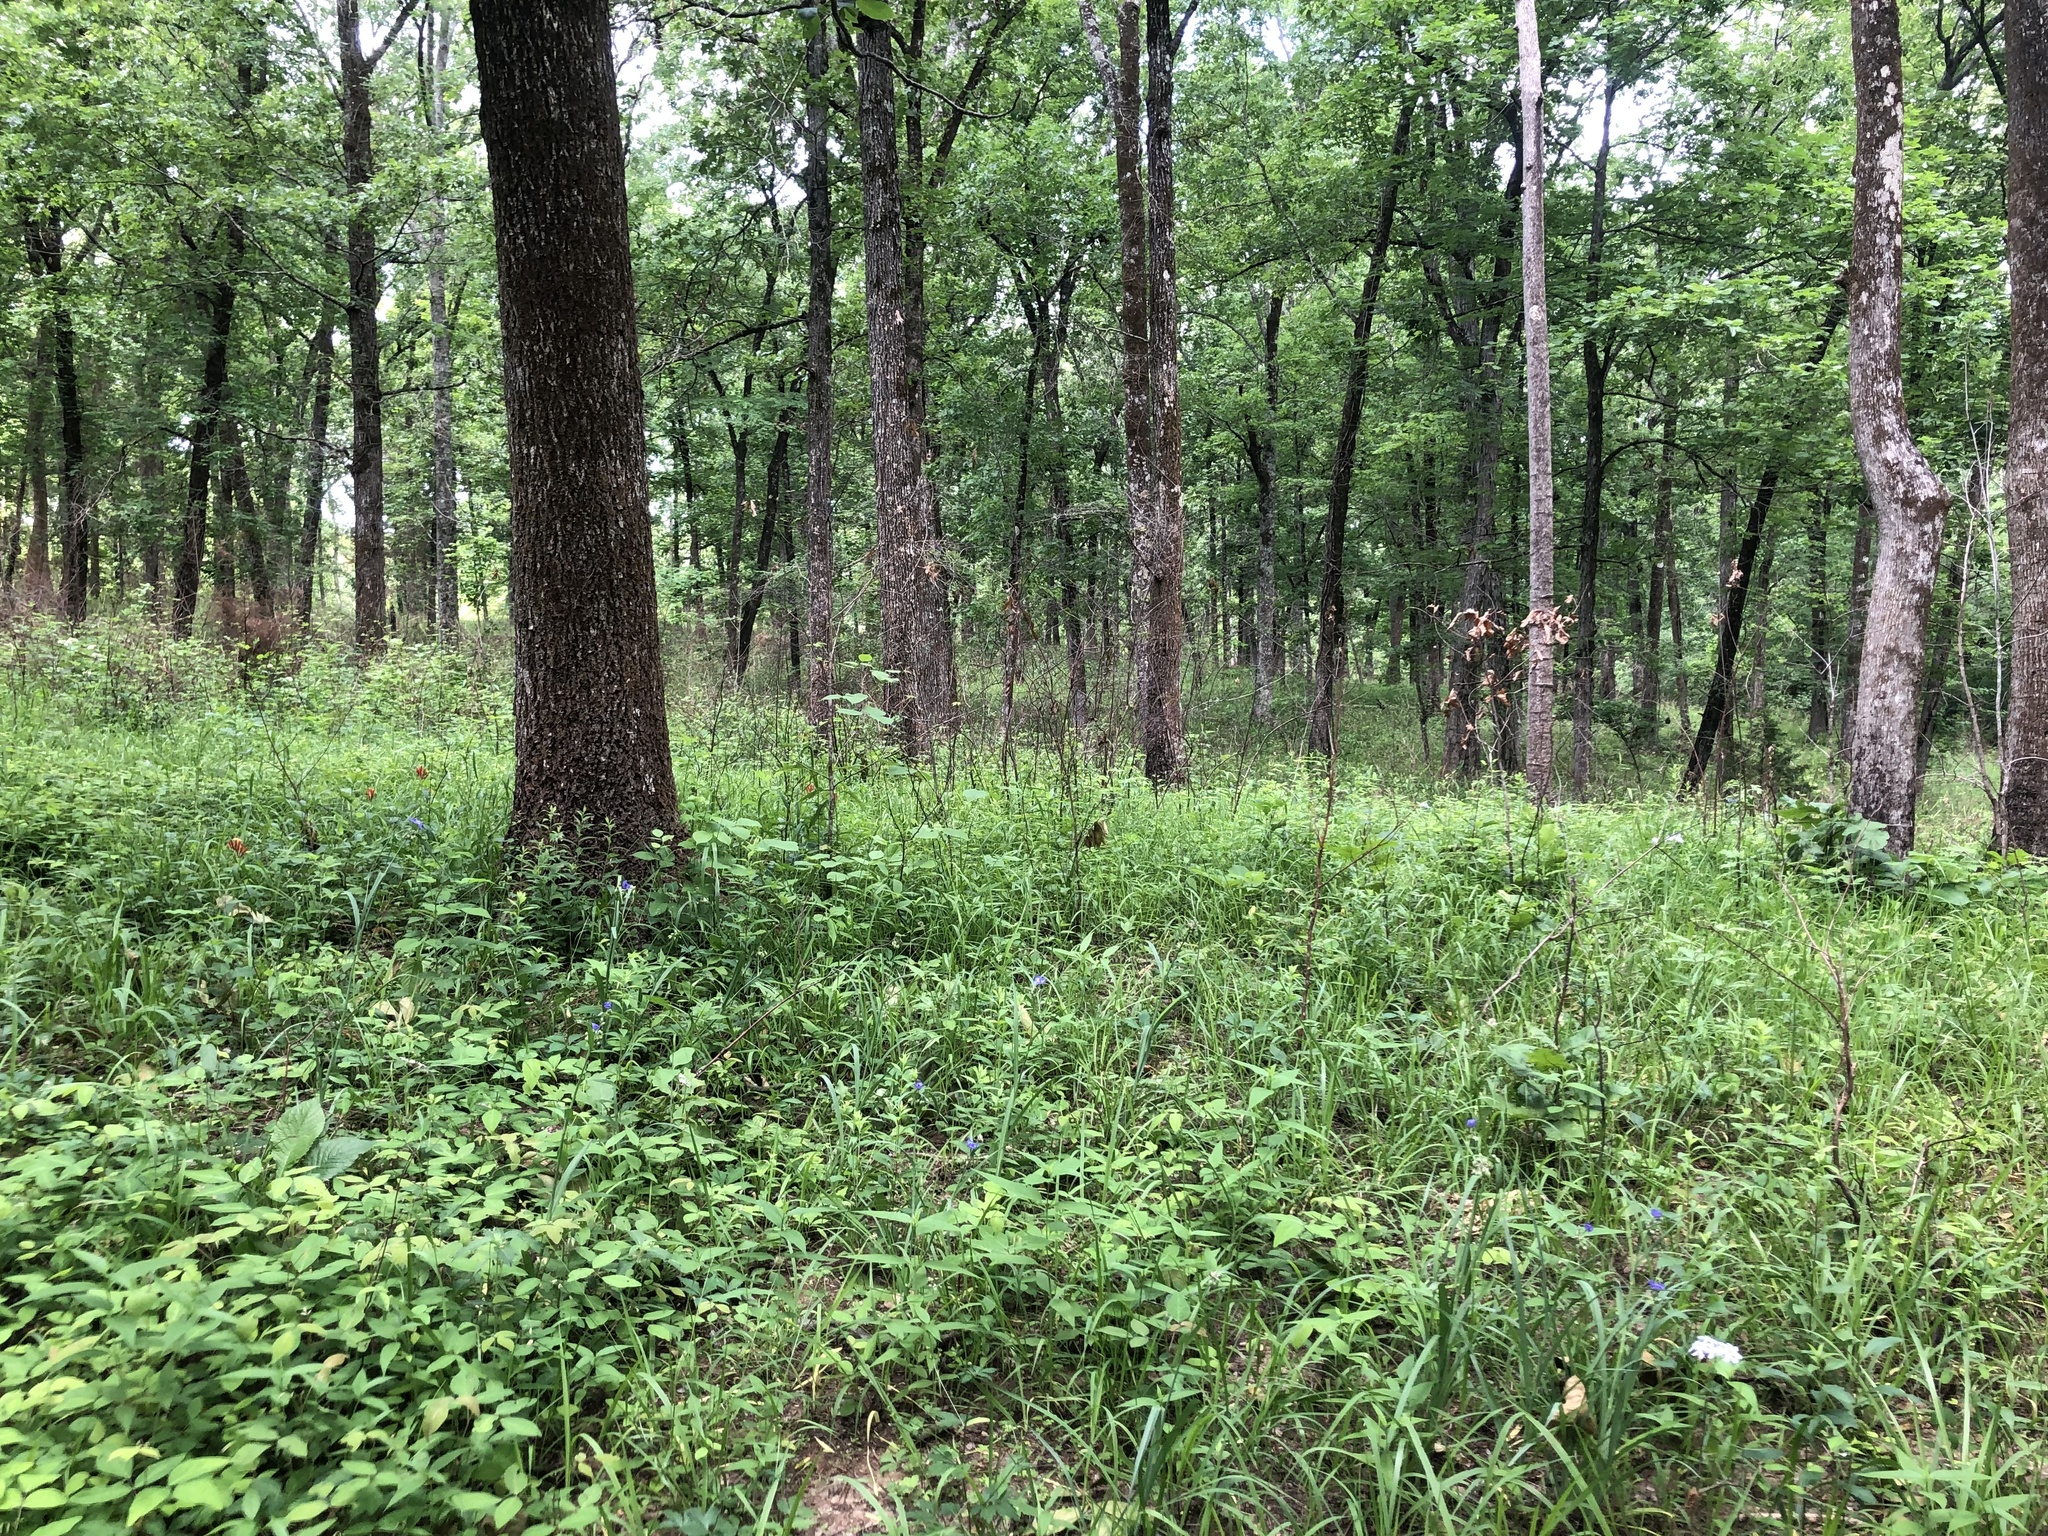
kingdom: Plantae
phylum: Tracheophyta
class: Magnoliopsida
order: Ericales
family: Polemoniaceae
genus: Phlox
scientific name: Phlox pilosa
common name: Prairie phlox
